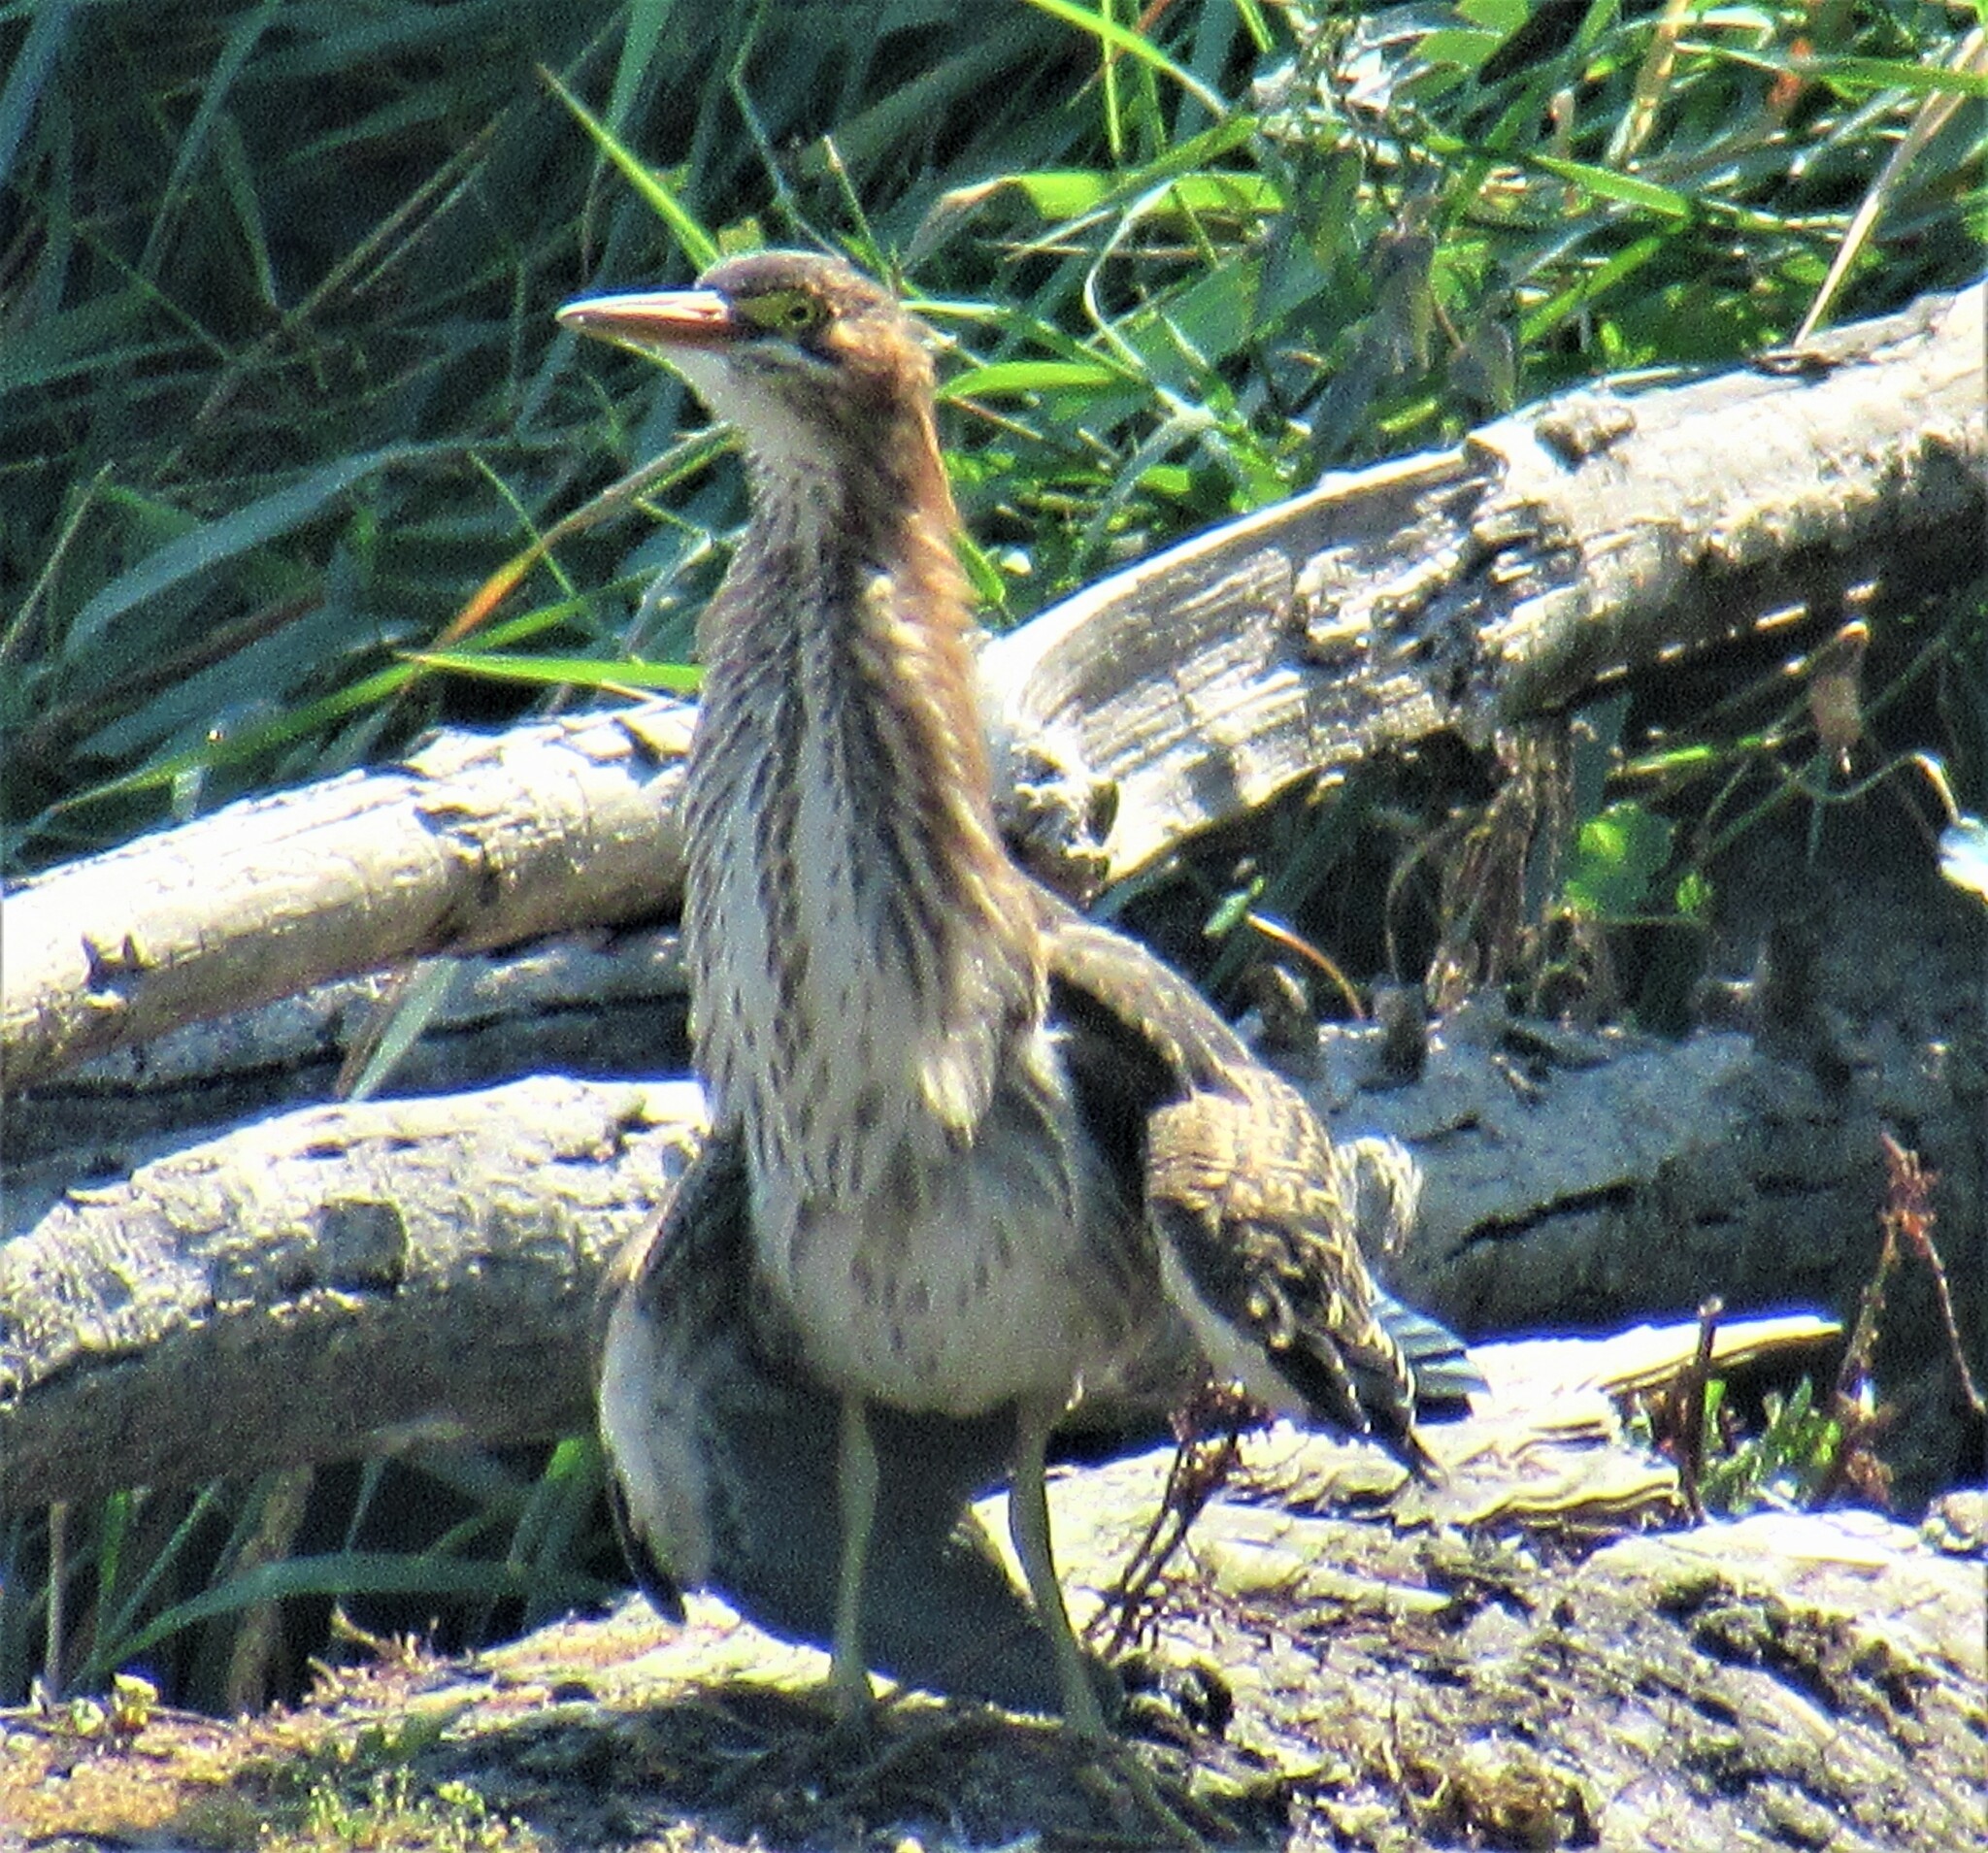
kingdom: Animalia
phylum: Chordata
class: Aves
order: Pelecaniformes
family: Ardeidae
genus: Butorides
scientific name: Butorides virescens
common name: Green heron
